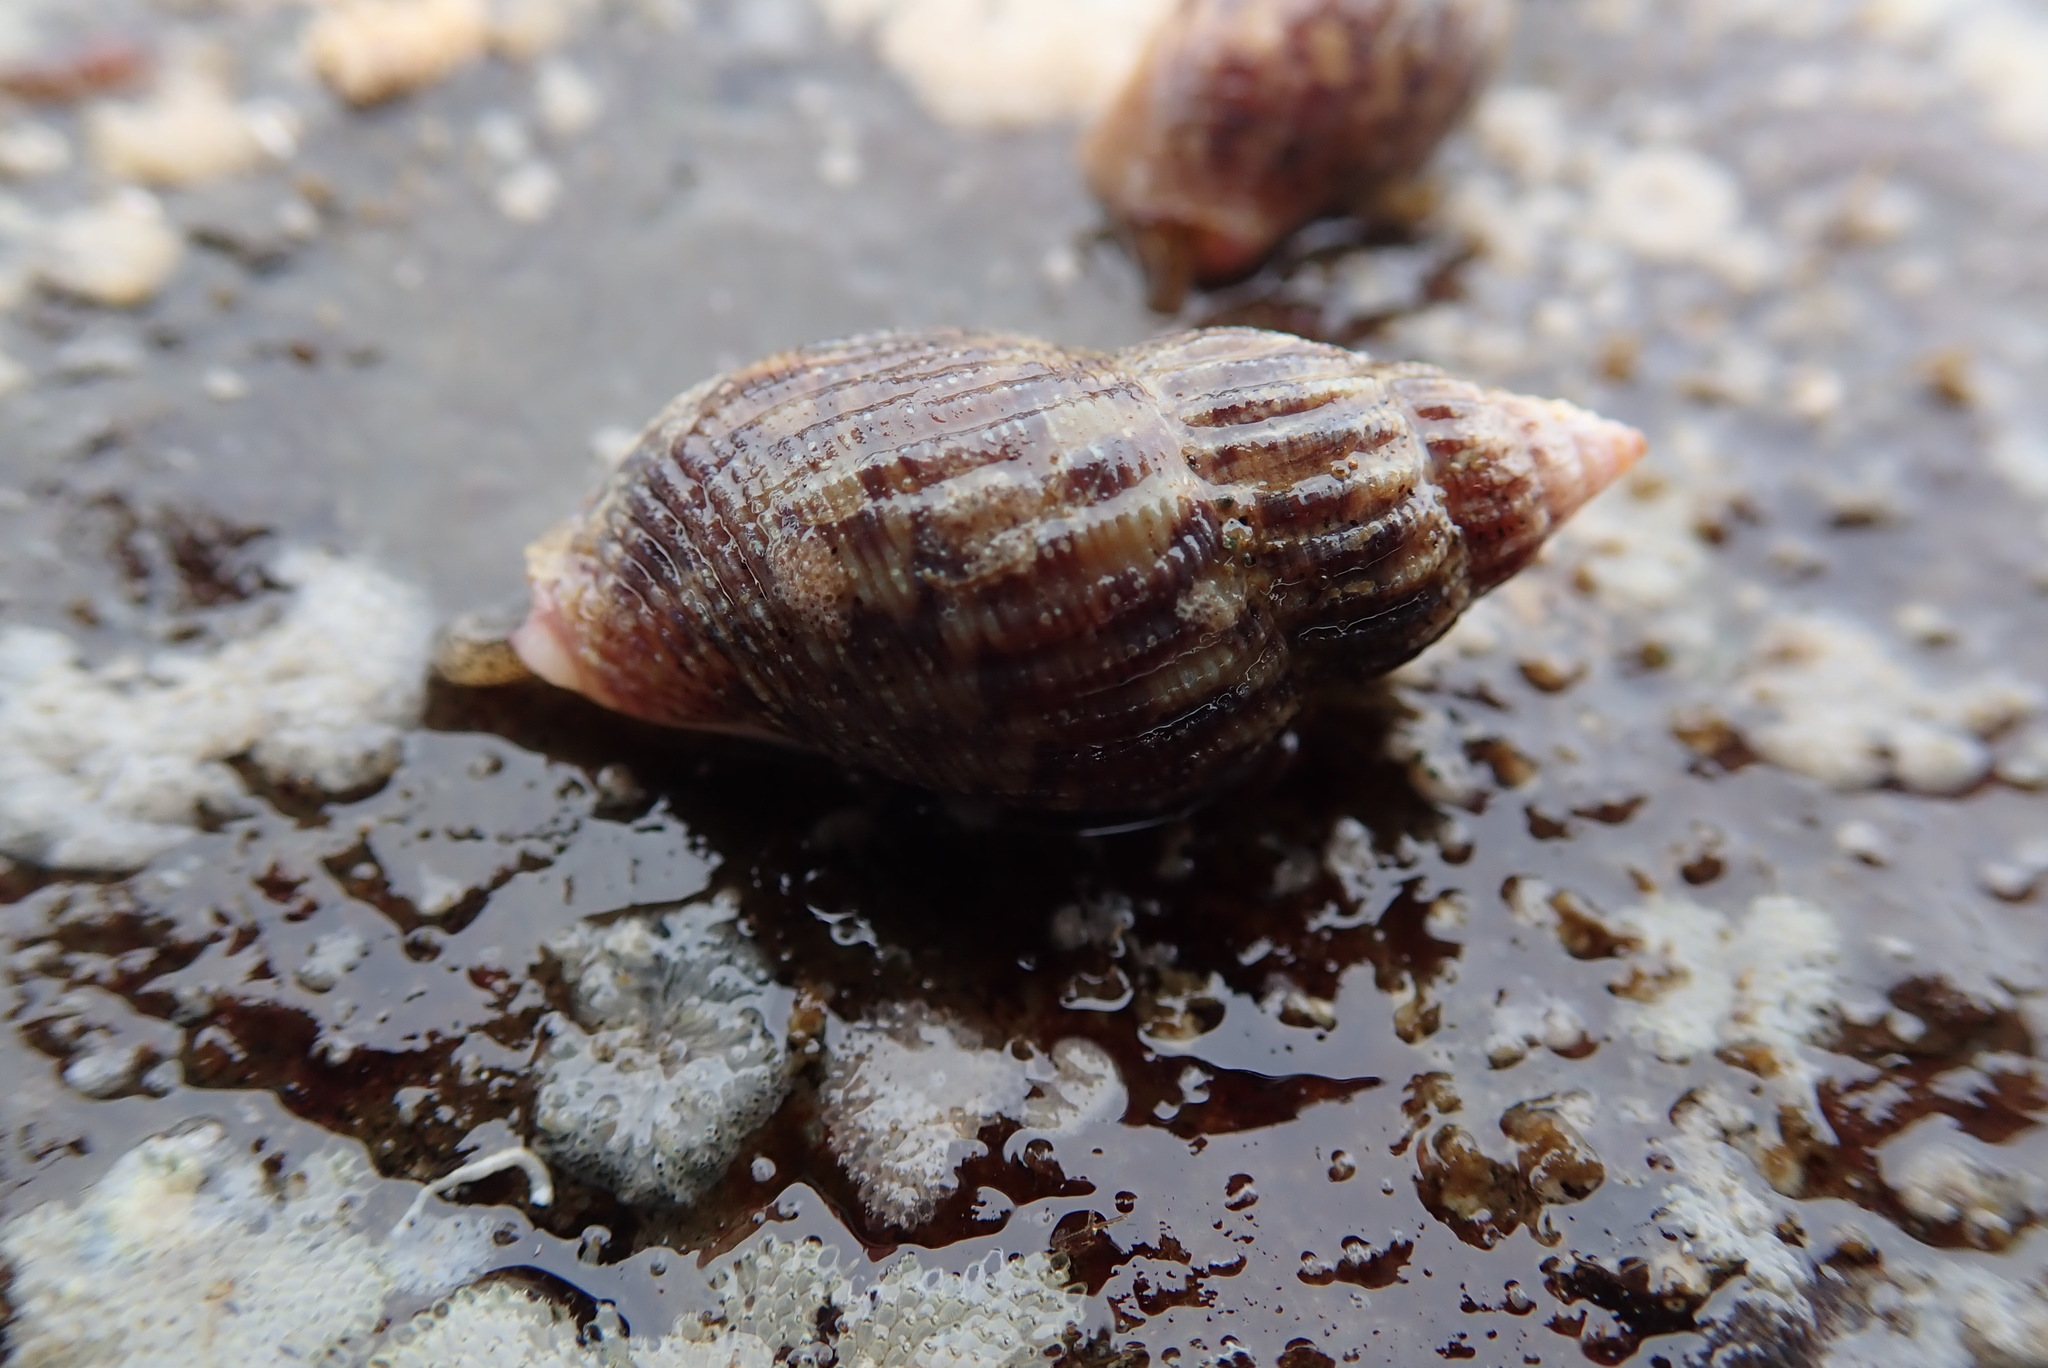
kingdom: Animalia
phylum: Mollusca
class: Gastropoda
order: Neogastropoda
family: Columbellidae
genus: Amphissa
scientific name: Amphissa columbiana
